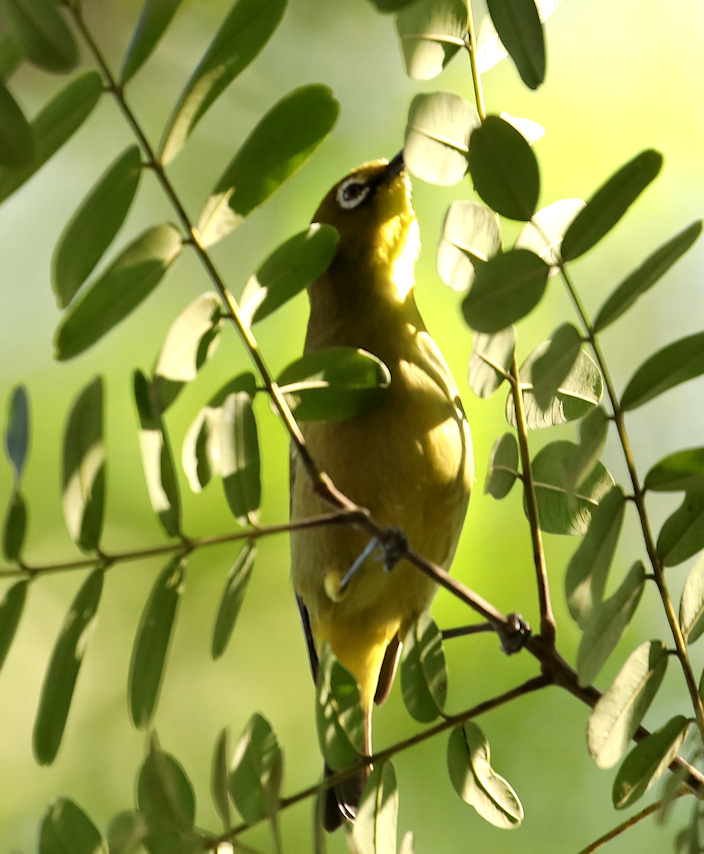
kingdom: Animalia
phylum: Chordata
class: Aves
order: Passeriformes
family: Zosteropidae
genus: Zosterops
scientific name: Zosterops virens
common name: Cape white-eye
